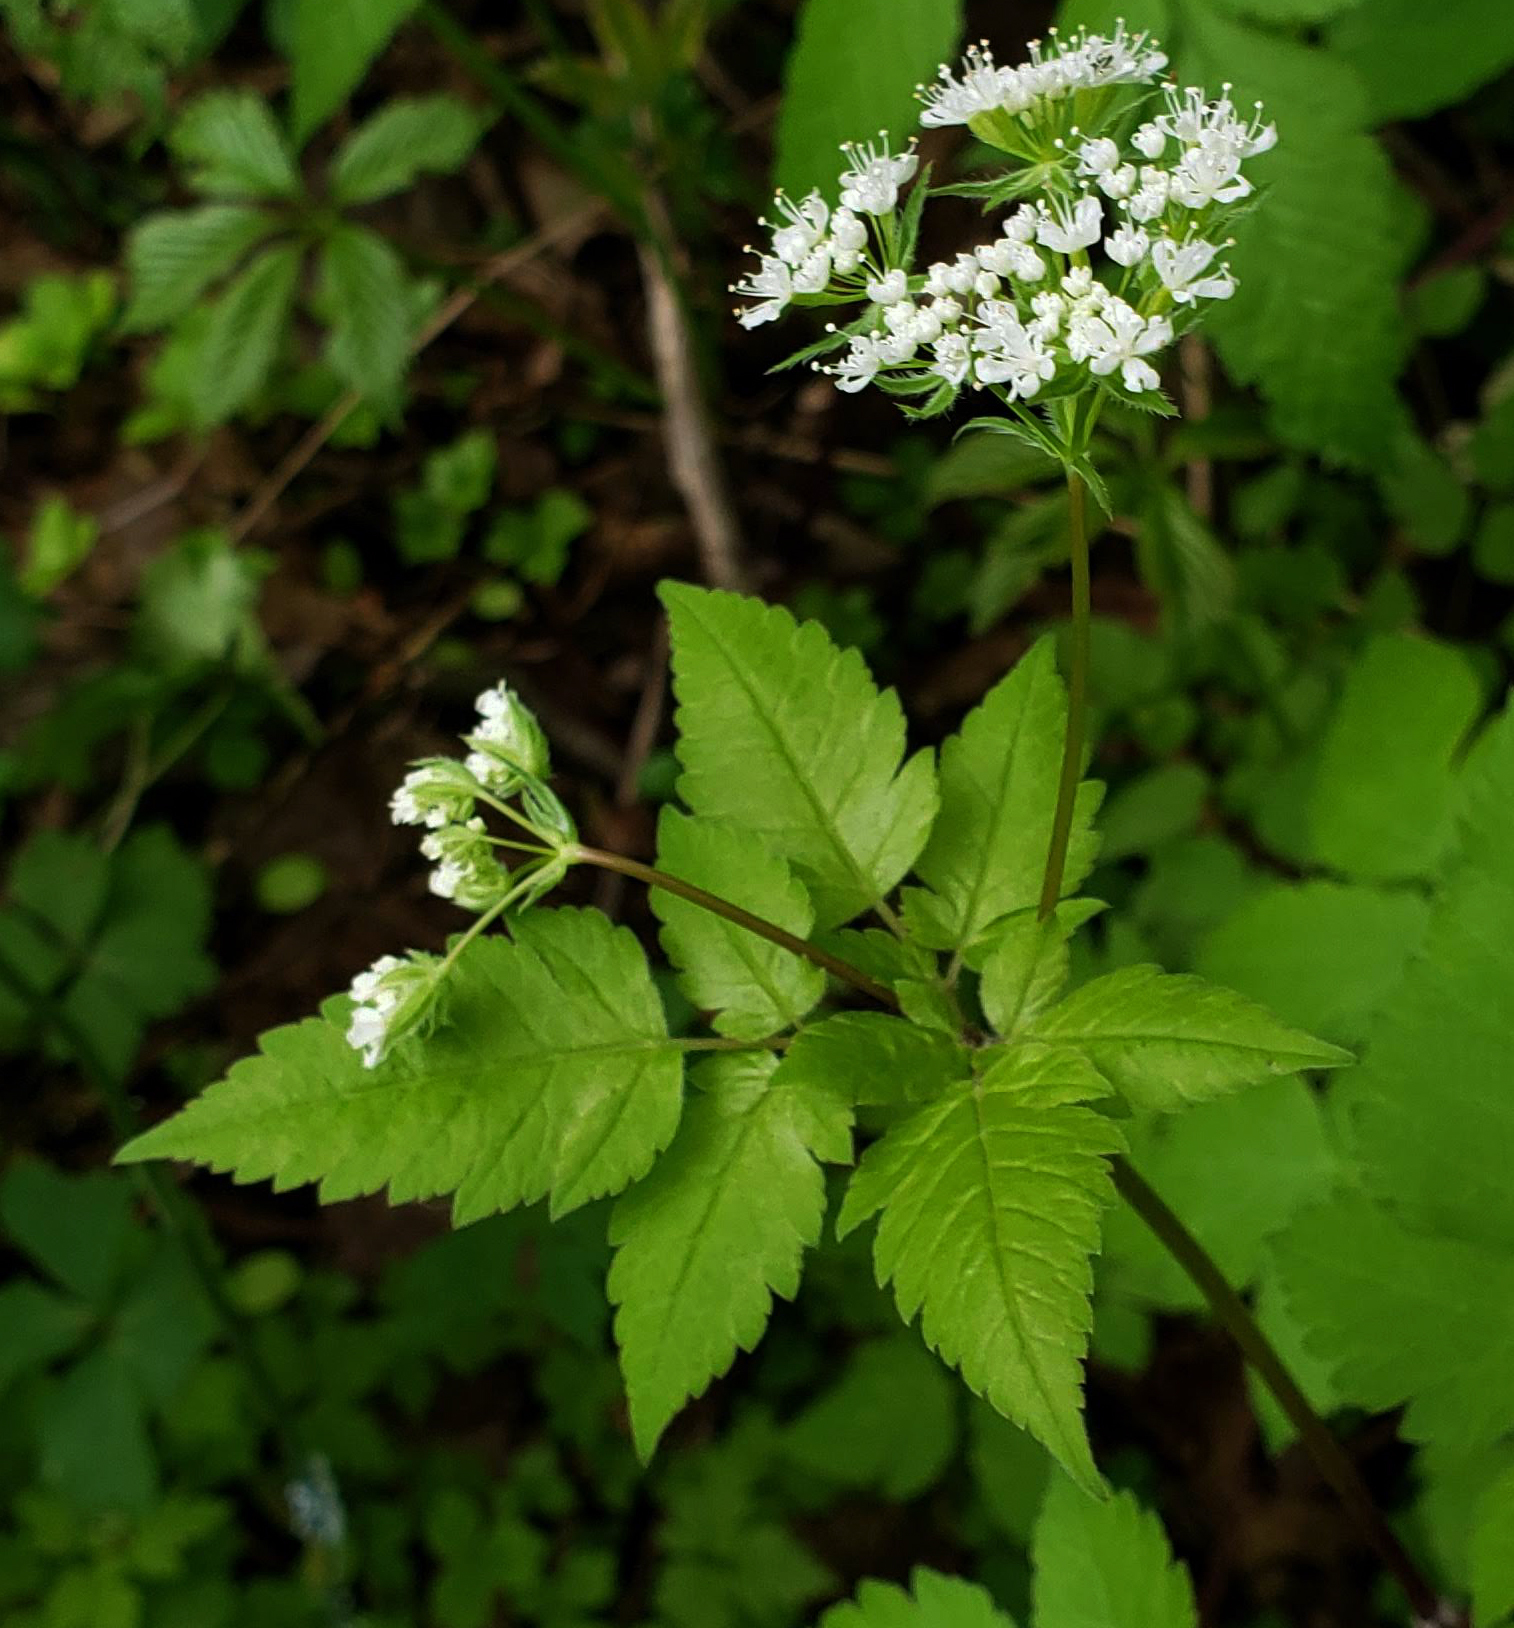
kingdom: Plantae
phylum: Tracheophyta
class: Magnoliopsida
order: Apiales
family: Apiaceae
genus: Osmorhiza
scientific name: Osmorhiza longistylis
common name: Smooth sweet cicely
